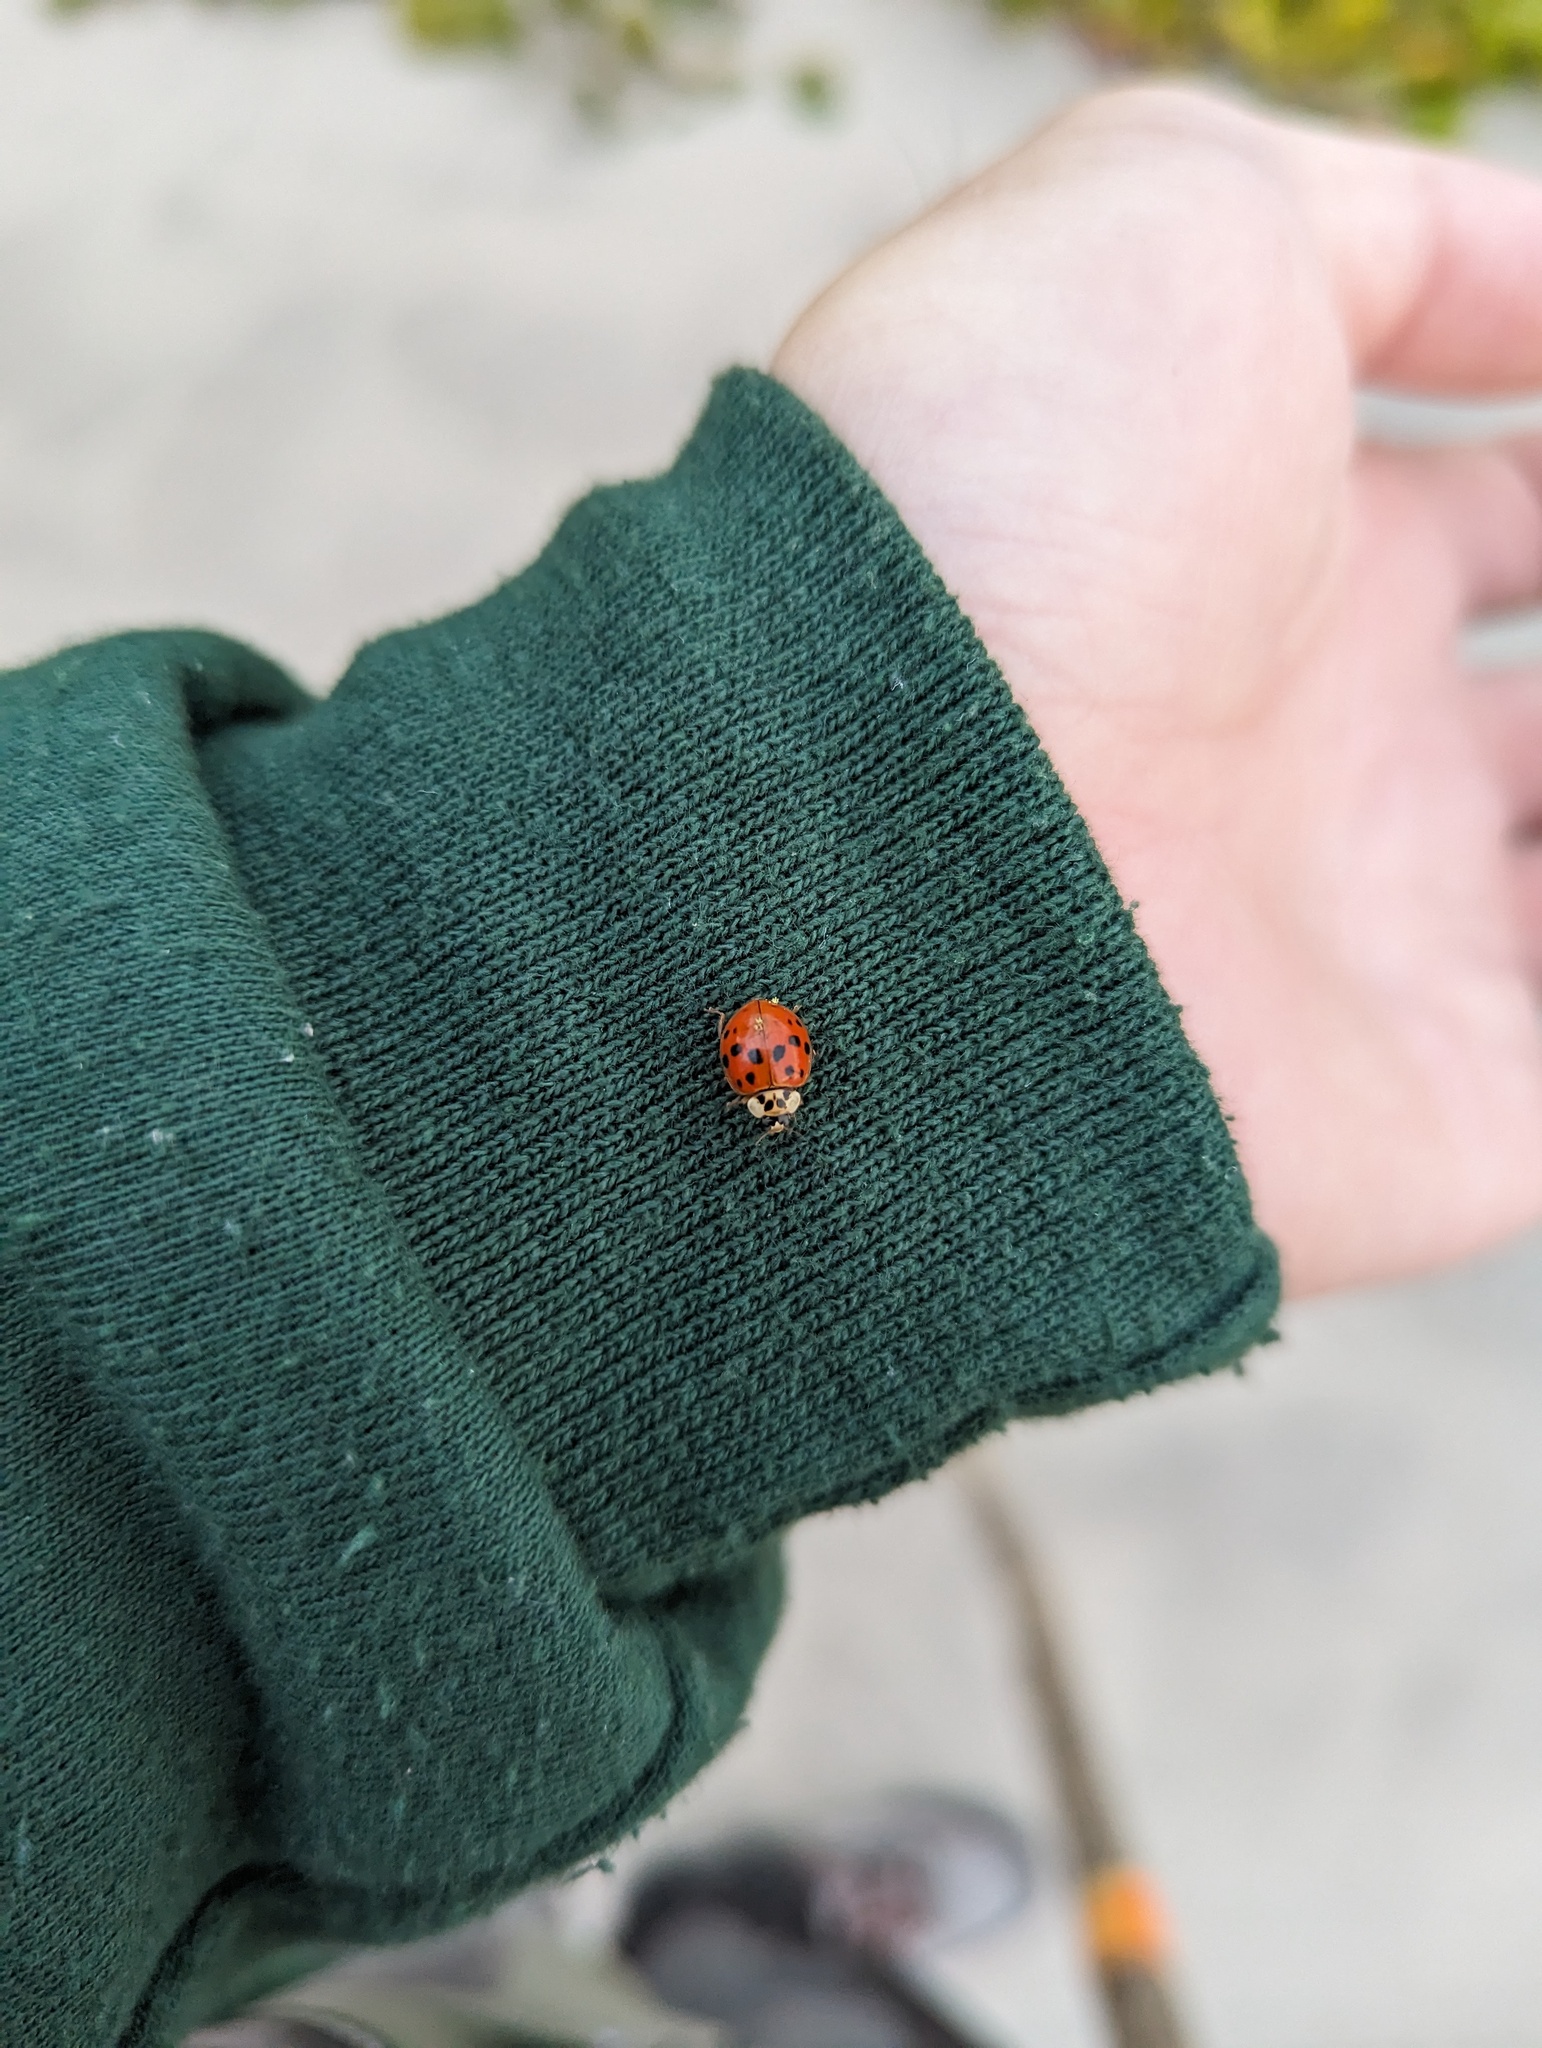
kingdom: Animalia
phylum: Arthropoda
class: Insecta
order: Coleoptera
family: Coccinellidae
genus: Harmonia
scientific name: Harmonia axyridis
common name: Harlequin ladybird
